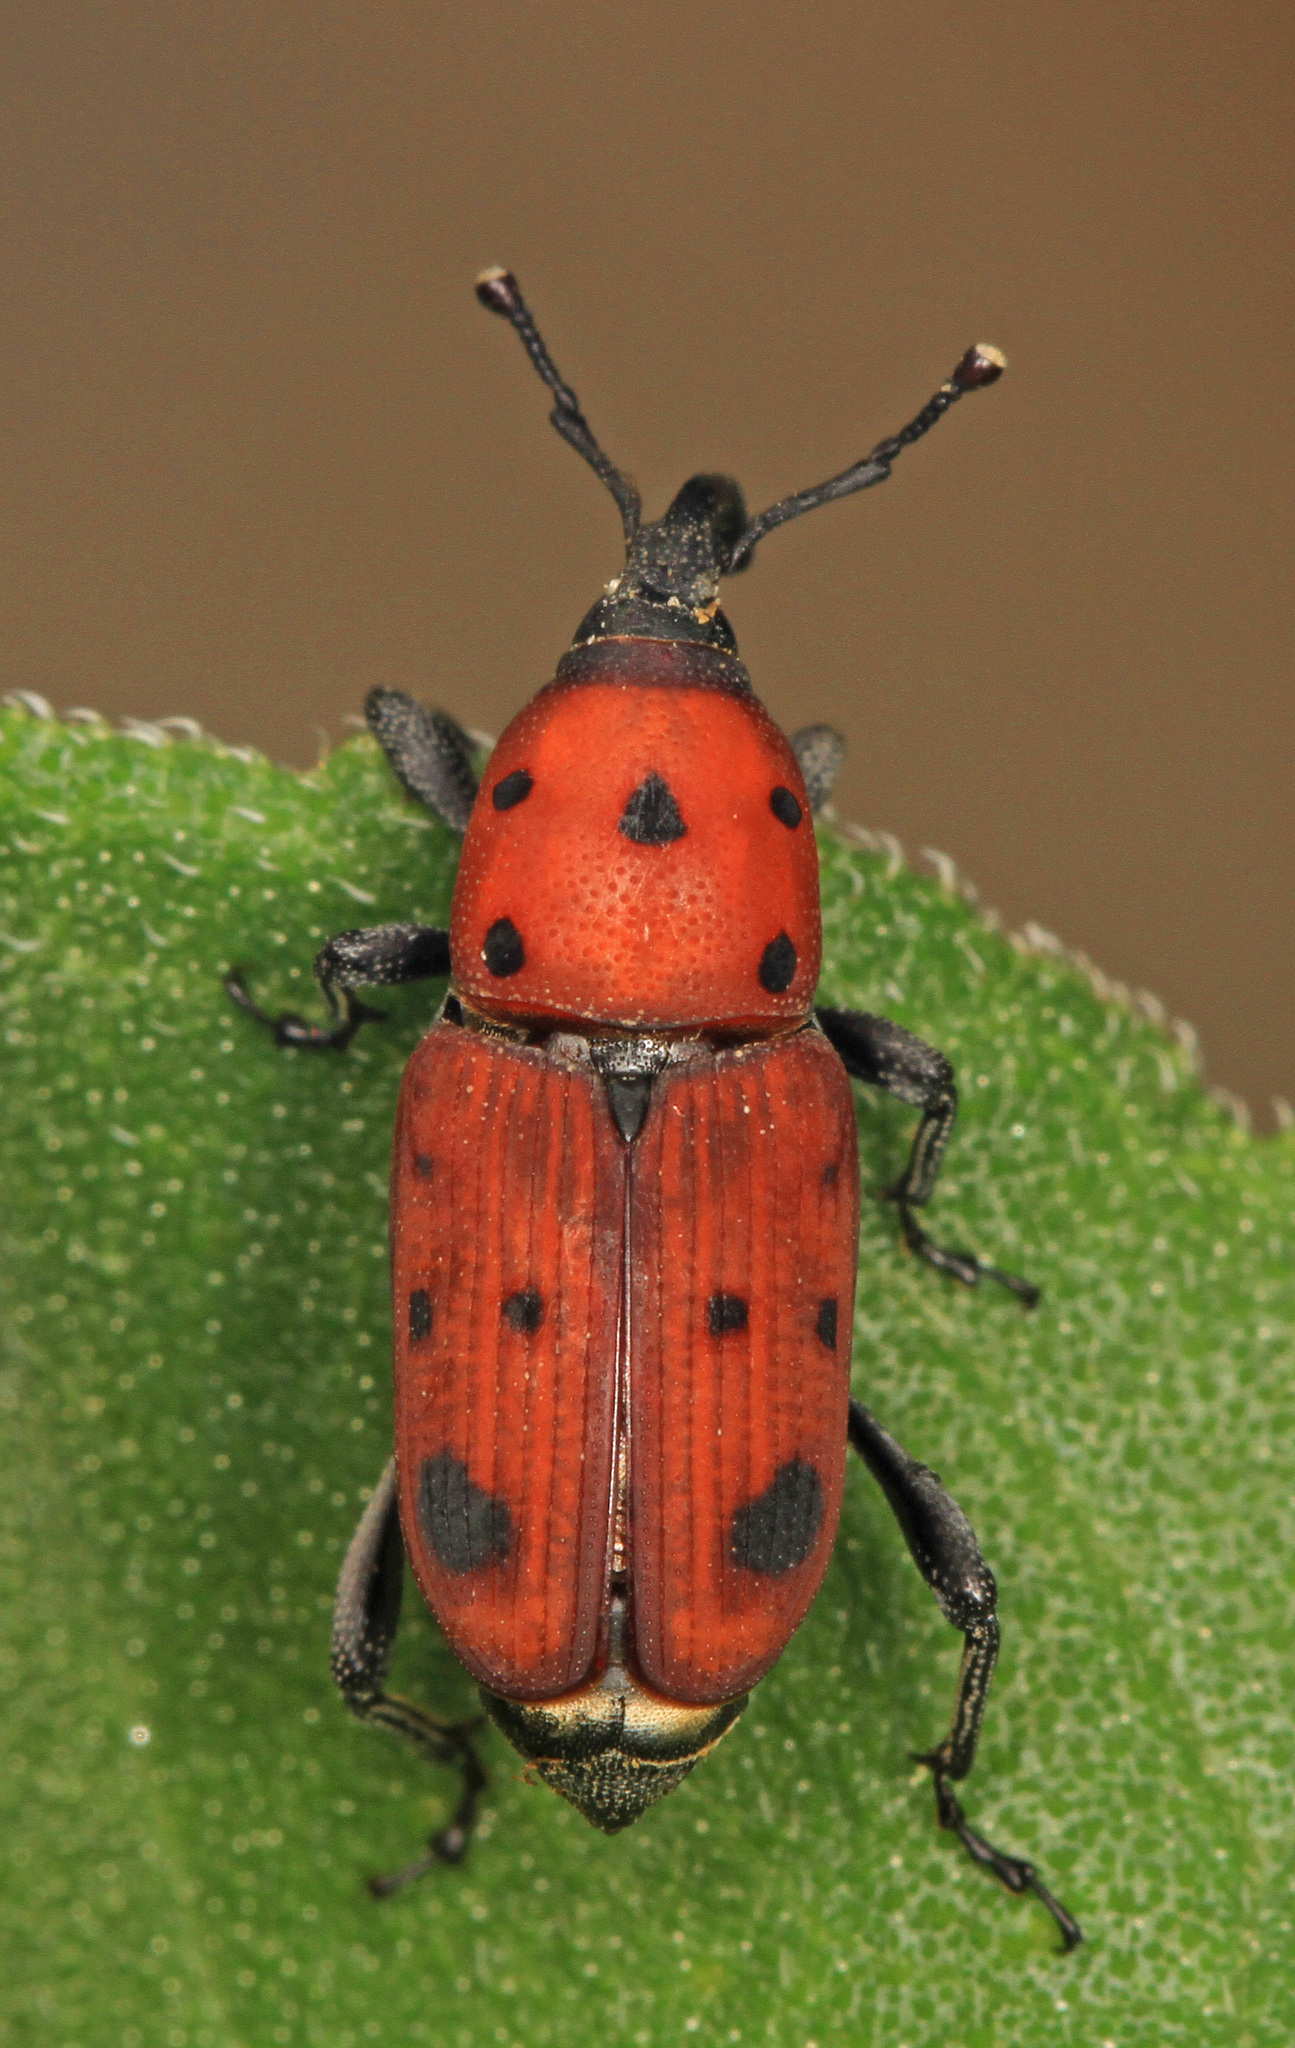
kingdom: Animalia
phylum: Arthropoda
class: Insecta
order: Coleoptera
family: Dryophthoridae
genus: Rhodobaenus
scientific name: Rhodobaenus tredecimpunctatus
